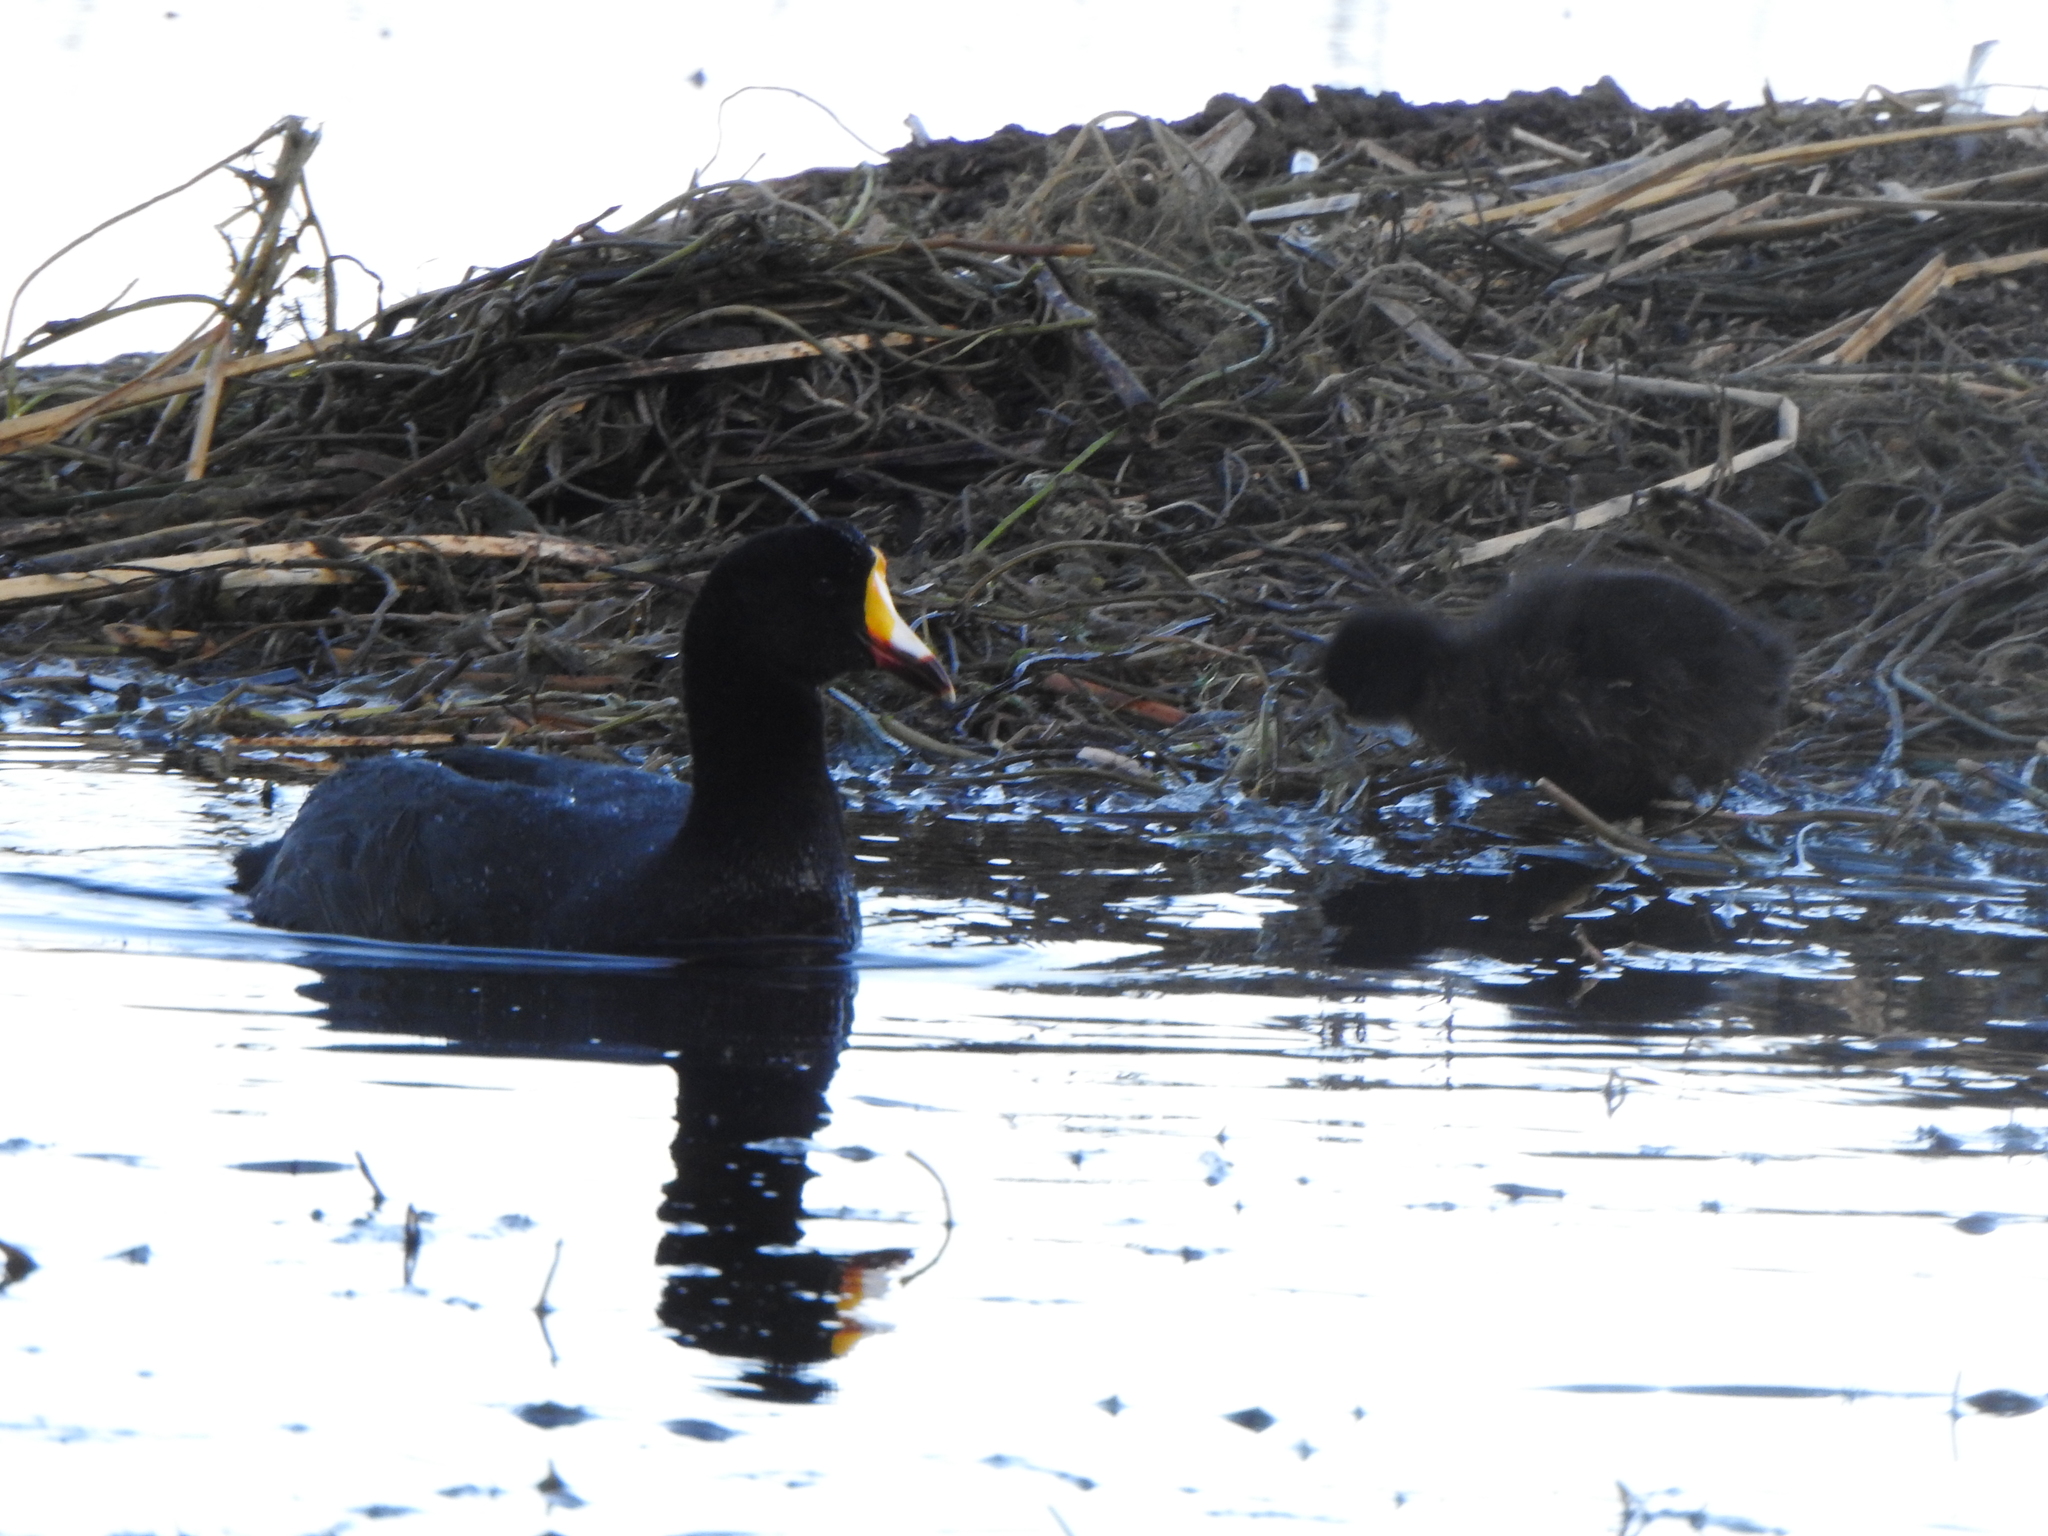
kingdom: Animalia
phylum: Chordata
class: Aves
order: Gruiformes
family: Rallidae
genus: Fulica
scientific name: Fulica gigantea
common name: Giant coot
